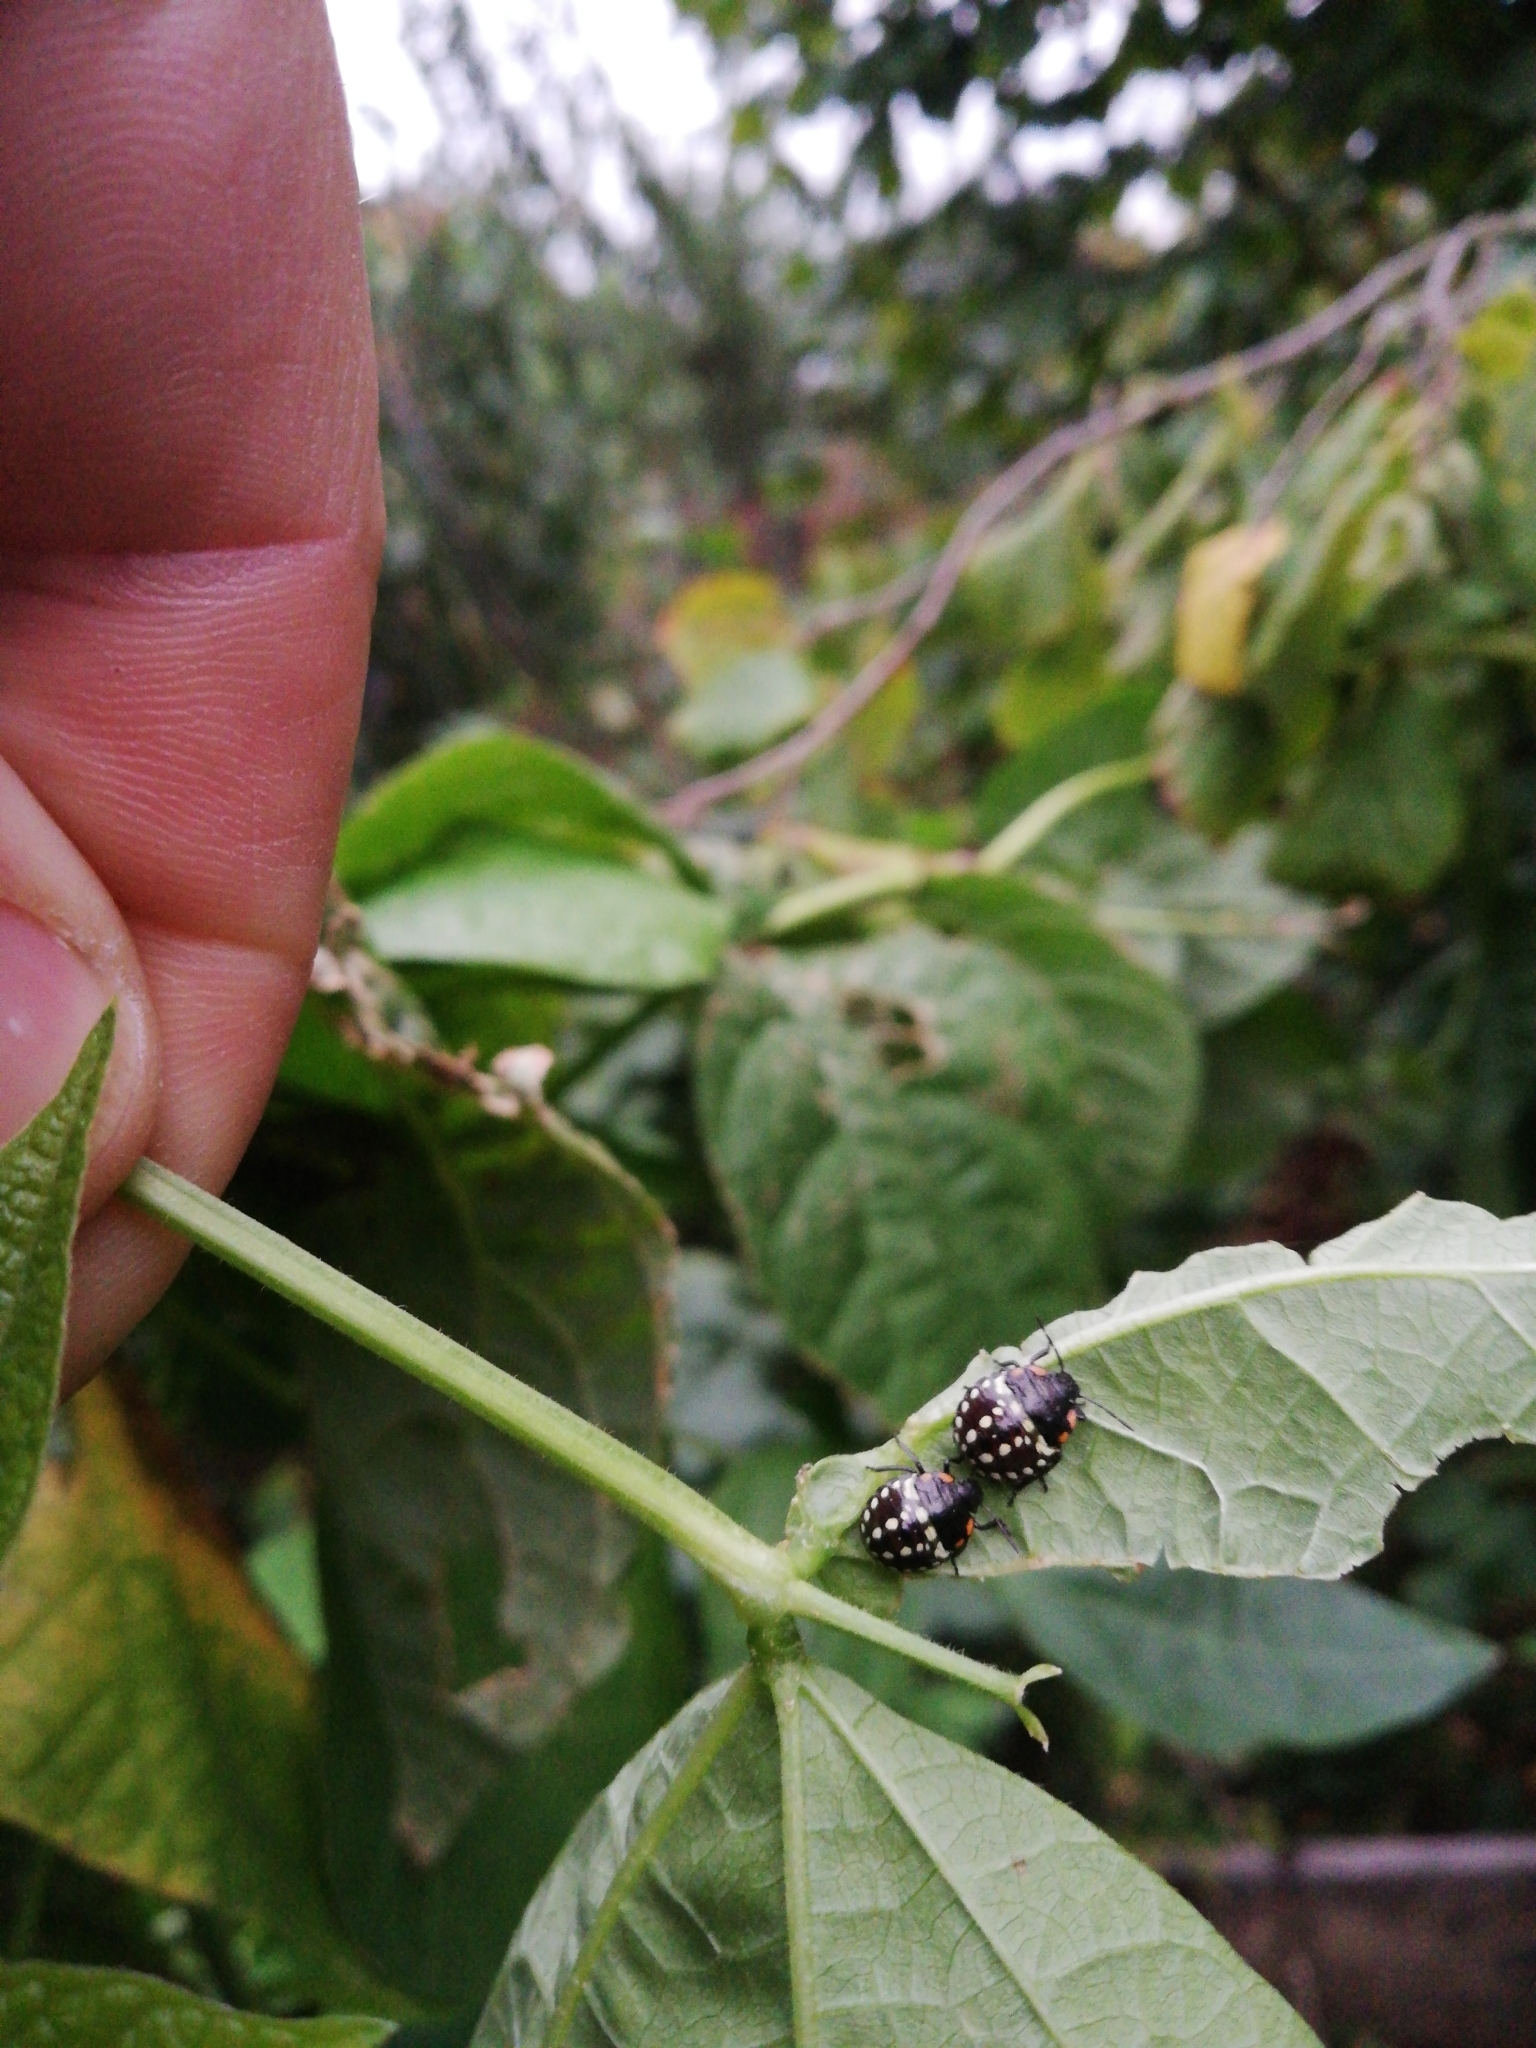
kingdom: Animalia
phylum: Arthropoda
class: Insecta
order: Hemiptera
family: Pentatomidae
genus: Nezara
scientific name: Nezara viridula
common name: Southern green stink bug
